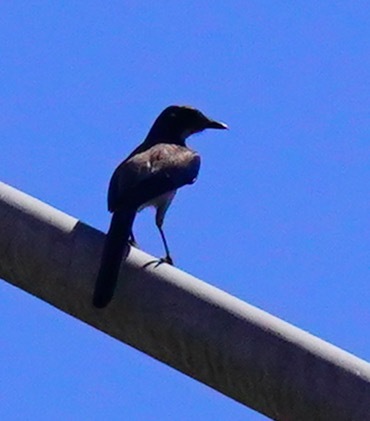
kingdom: Animalia
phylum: Chordata
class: Aves
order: Passeriformes
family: Corvidae
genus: Aphelocoma
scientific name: Aphelocoma californica
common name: California scrub-jay
